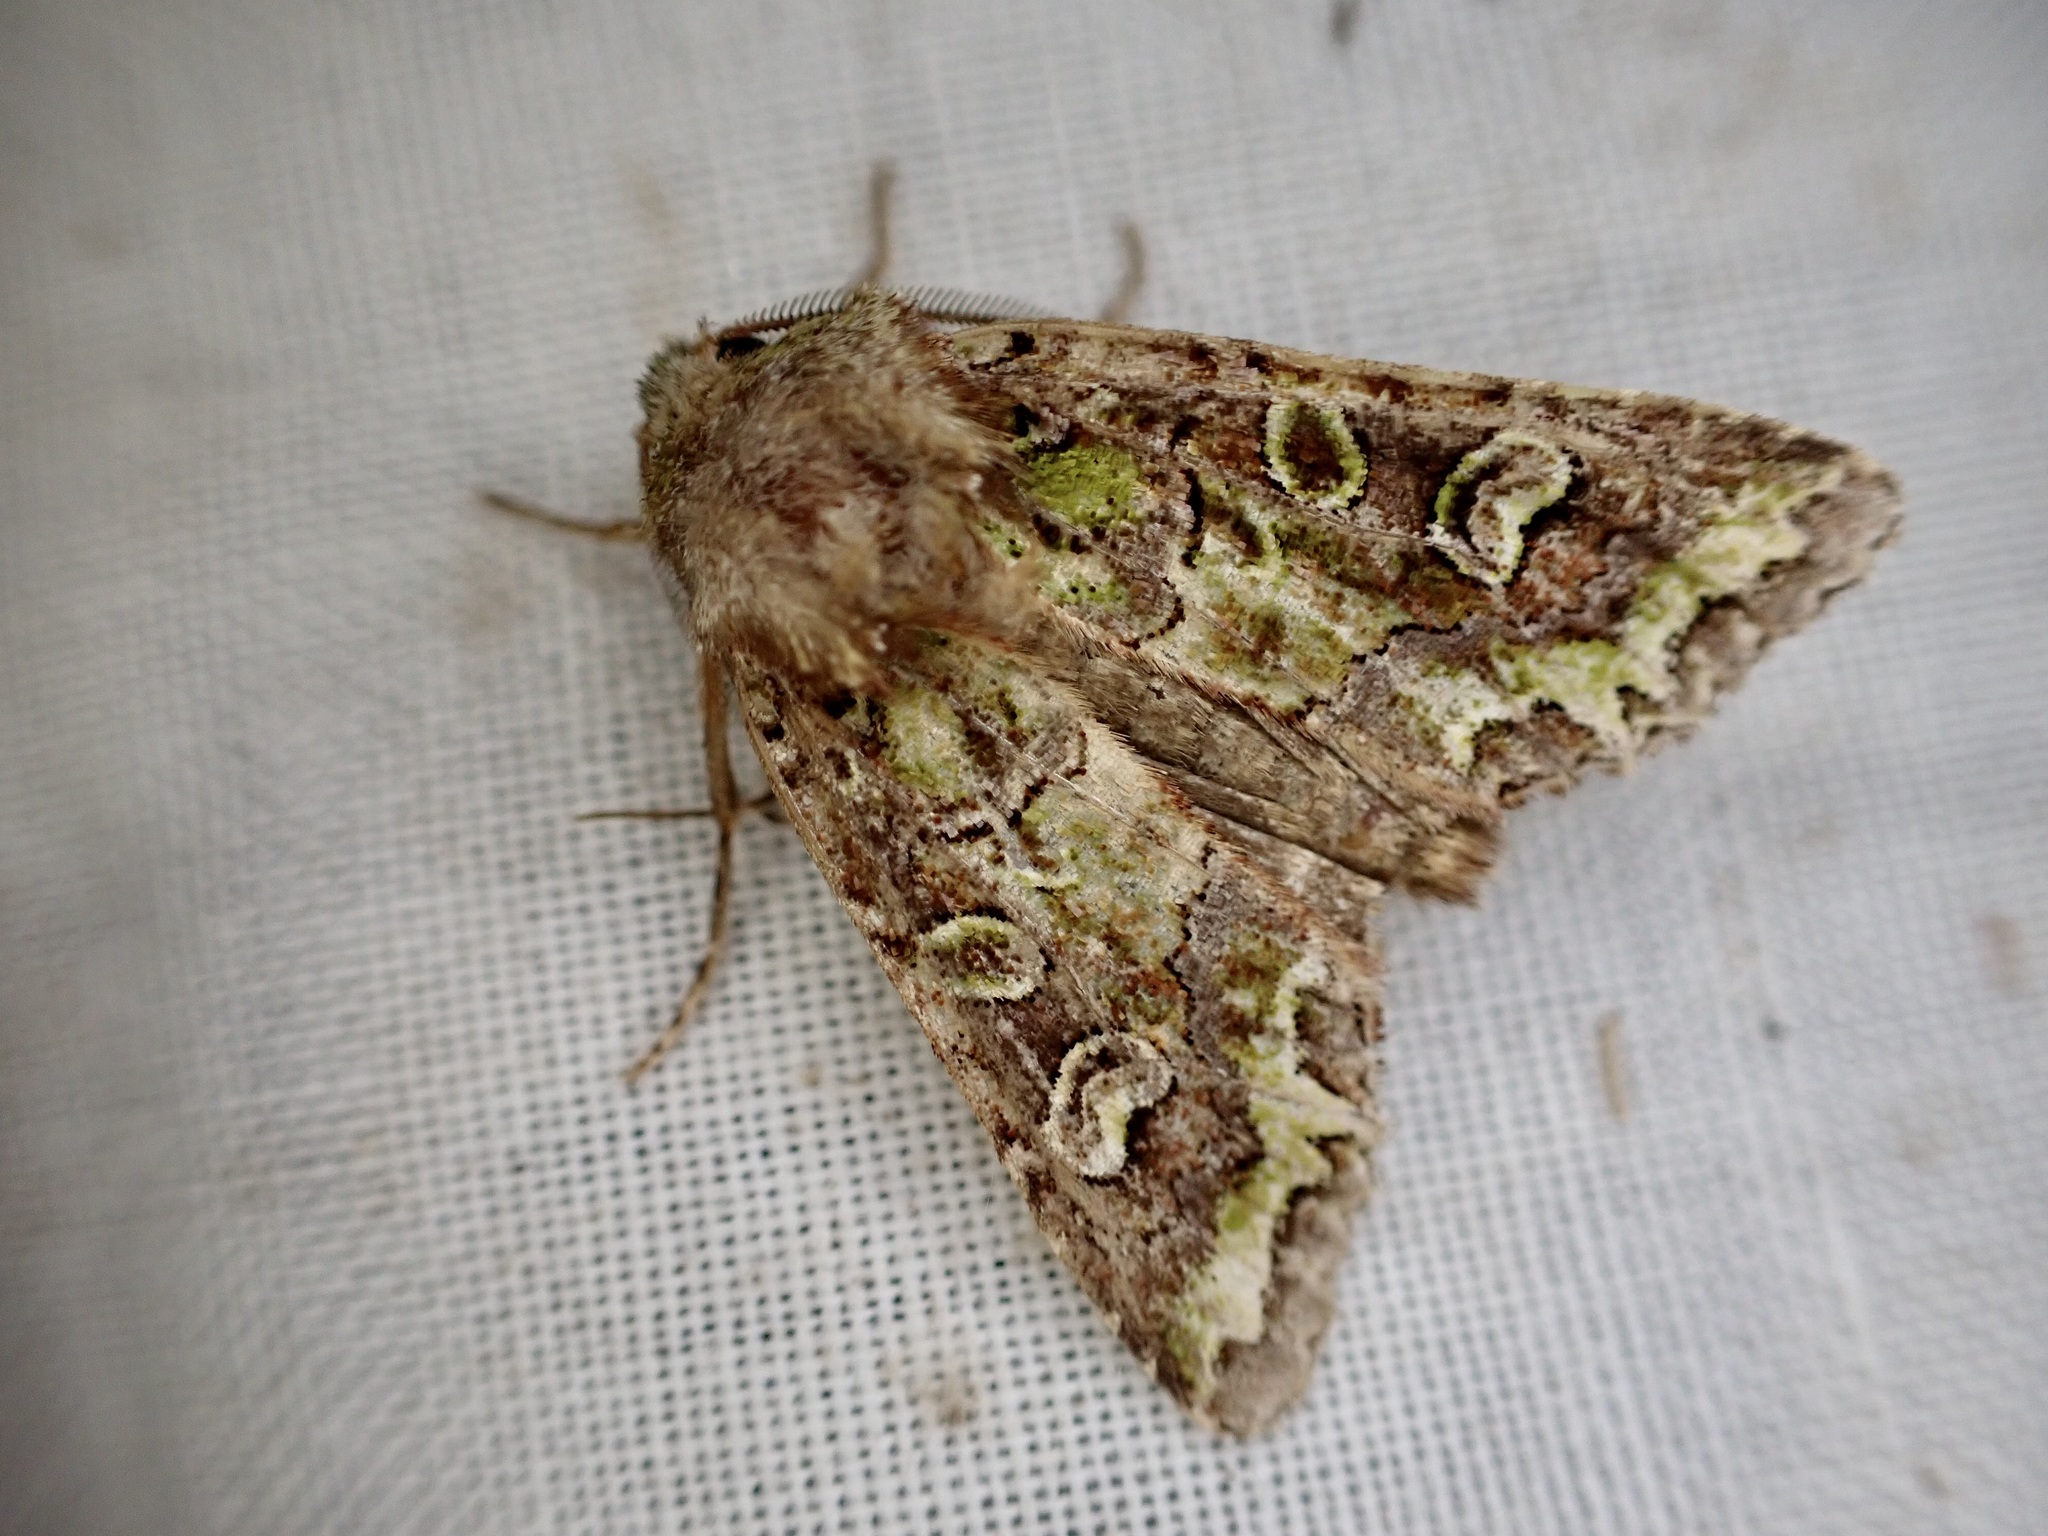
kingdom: Animalia
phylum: Arthropoda
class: Insecta
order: Lepidoptera
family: Noctuidae
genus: Ichneutica
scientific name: Ichneutica chlorodonta
